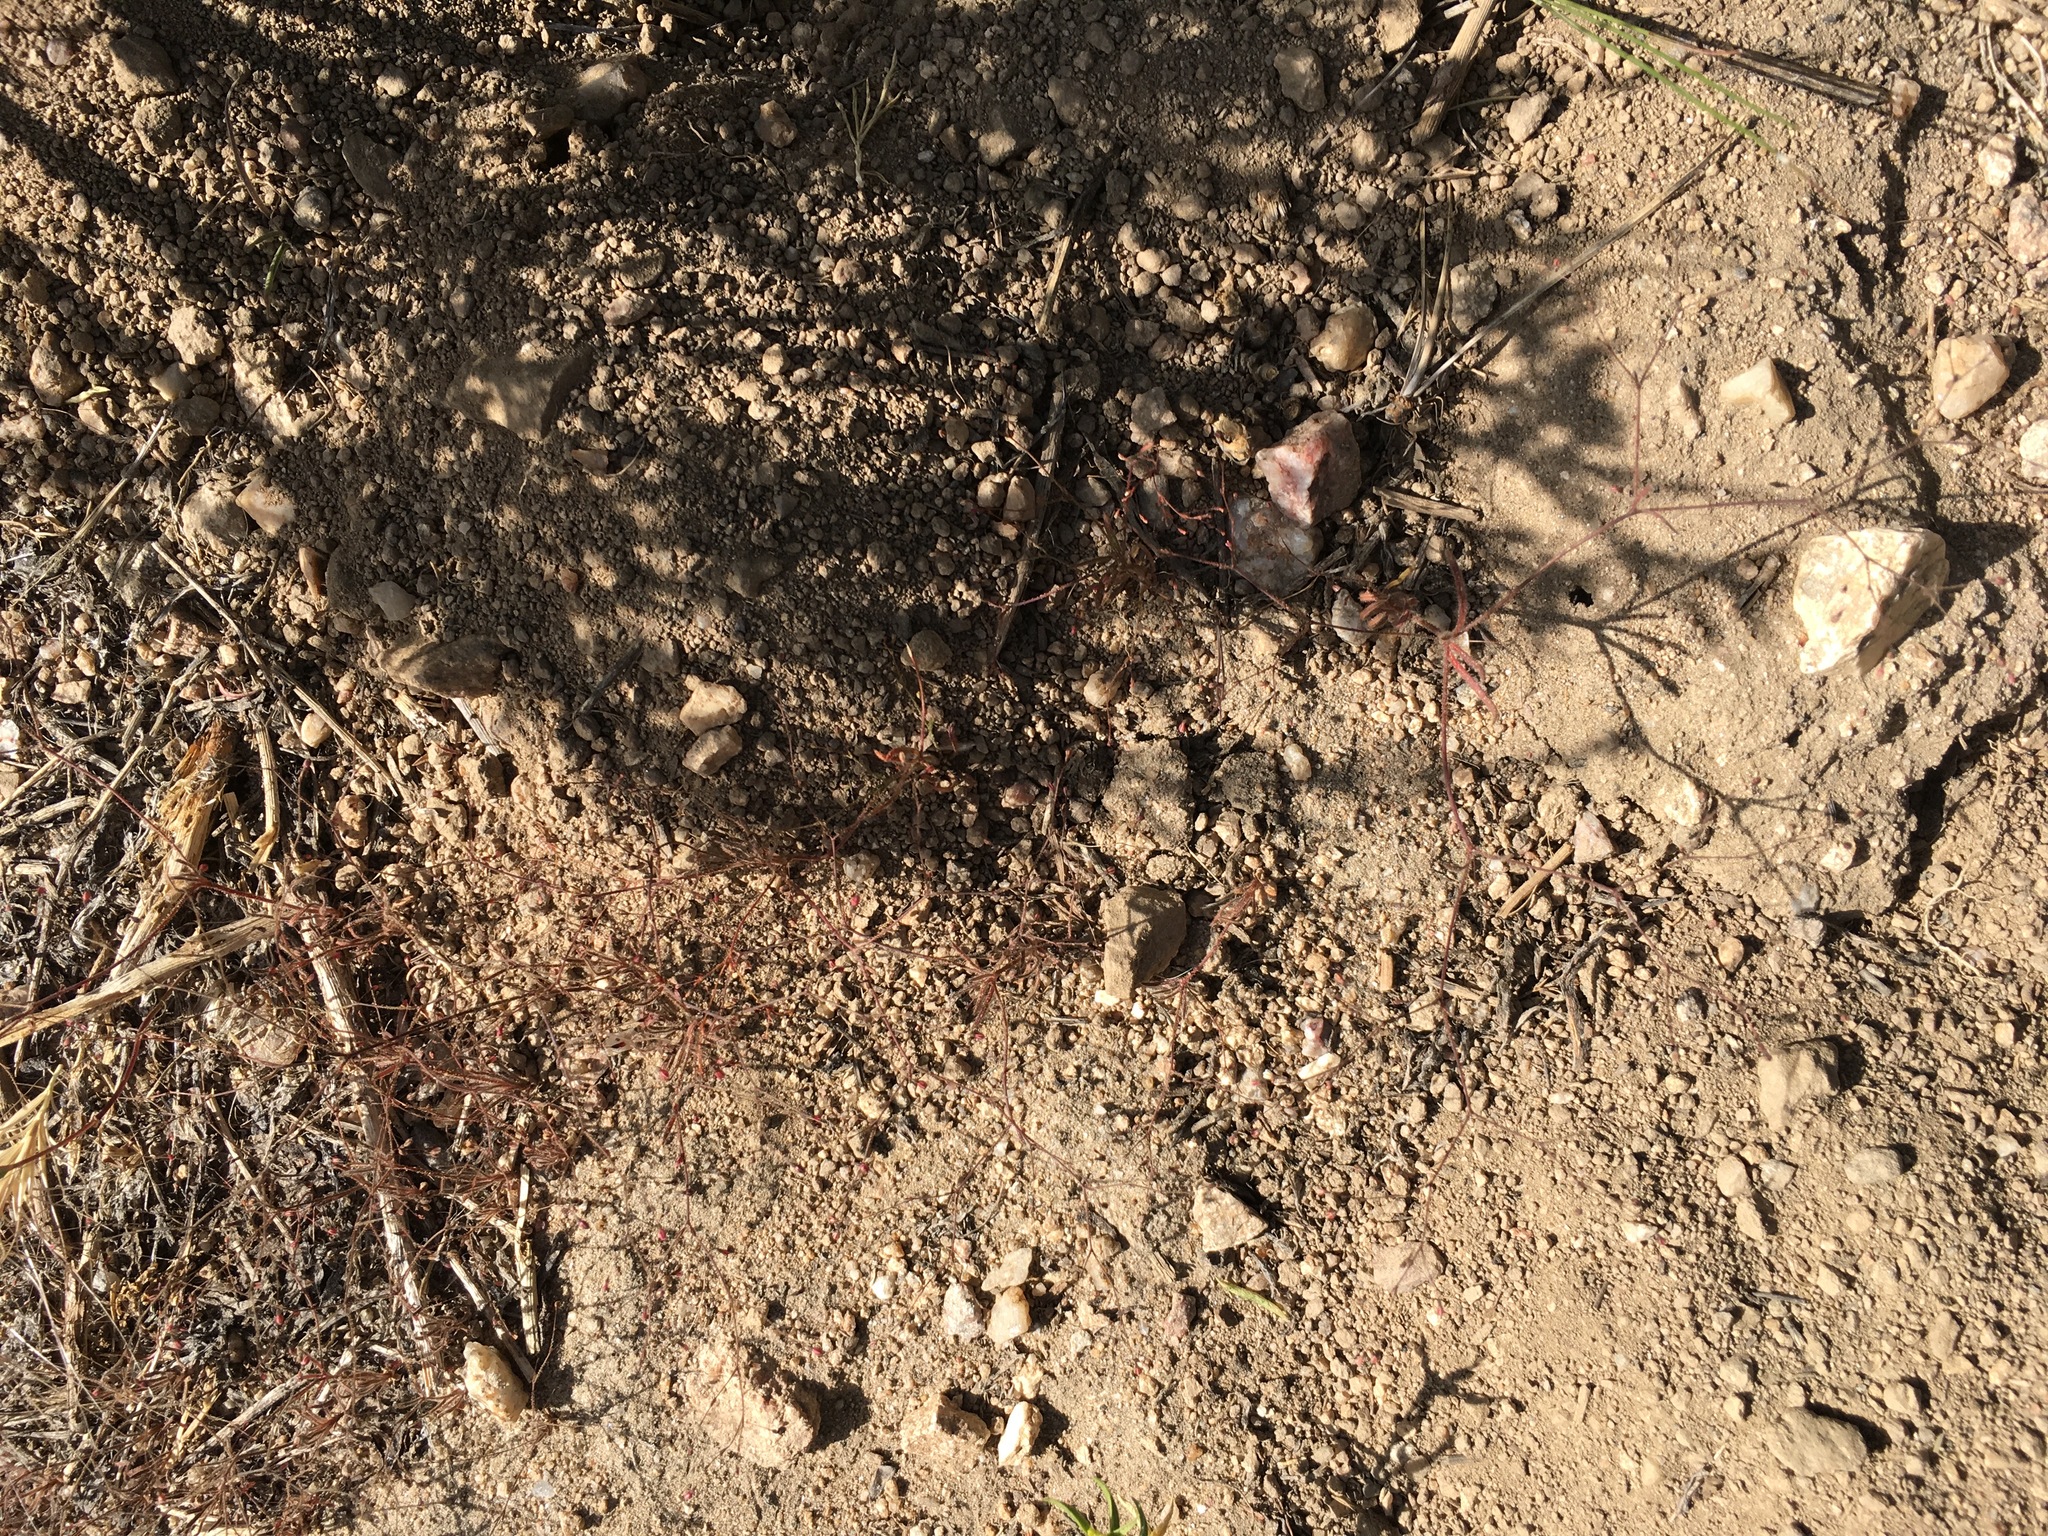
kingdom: Plantae
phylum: Tracheophyta
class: Magnoliopsida
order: Caryophyllales
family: Polygonaceae
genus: Eriogonum
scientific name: Eriogonum spergulinum
